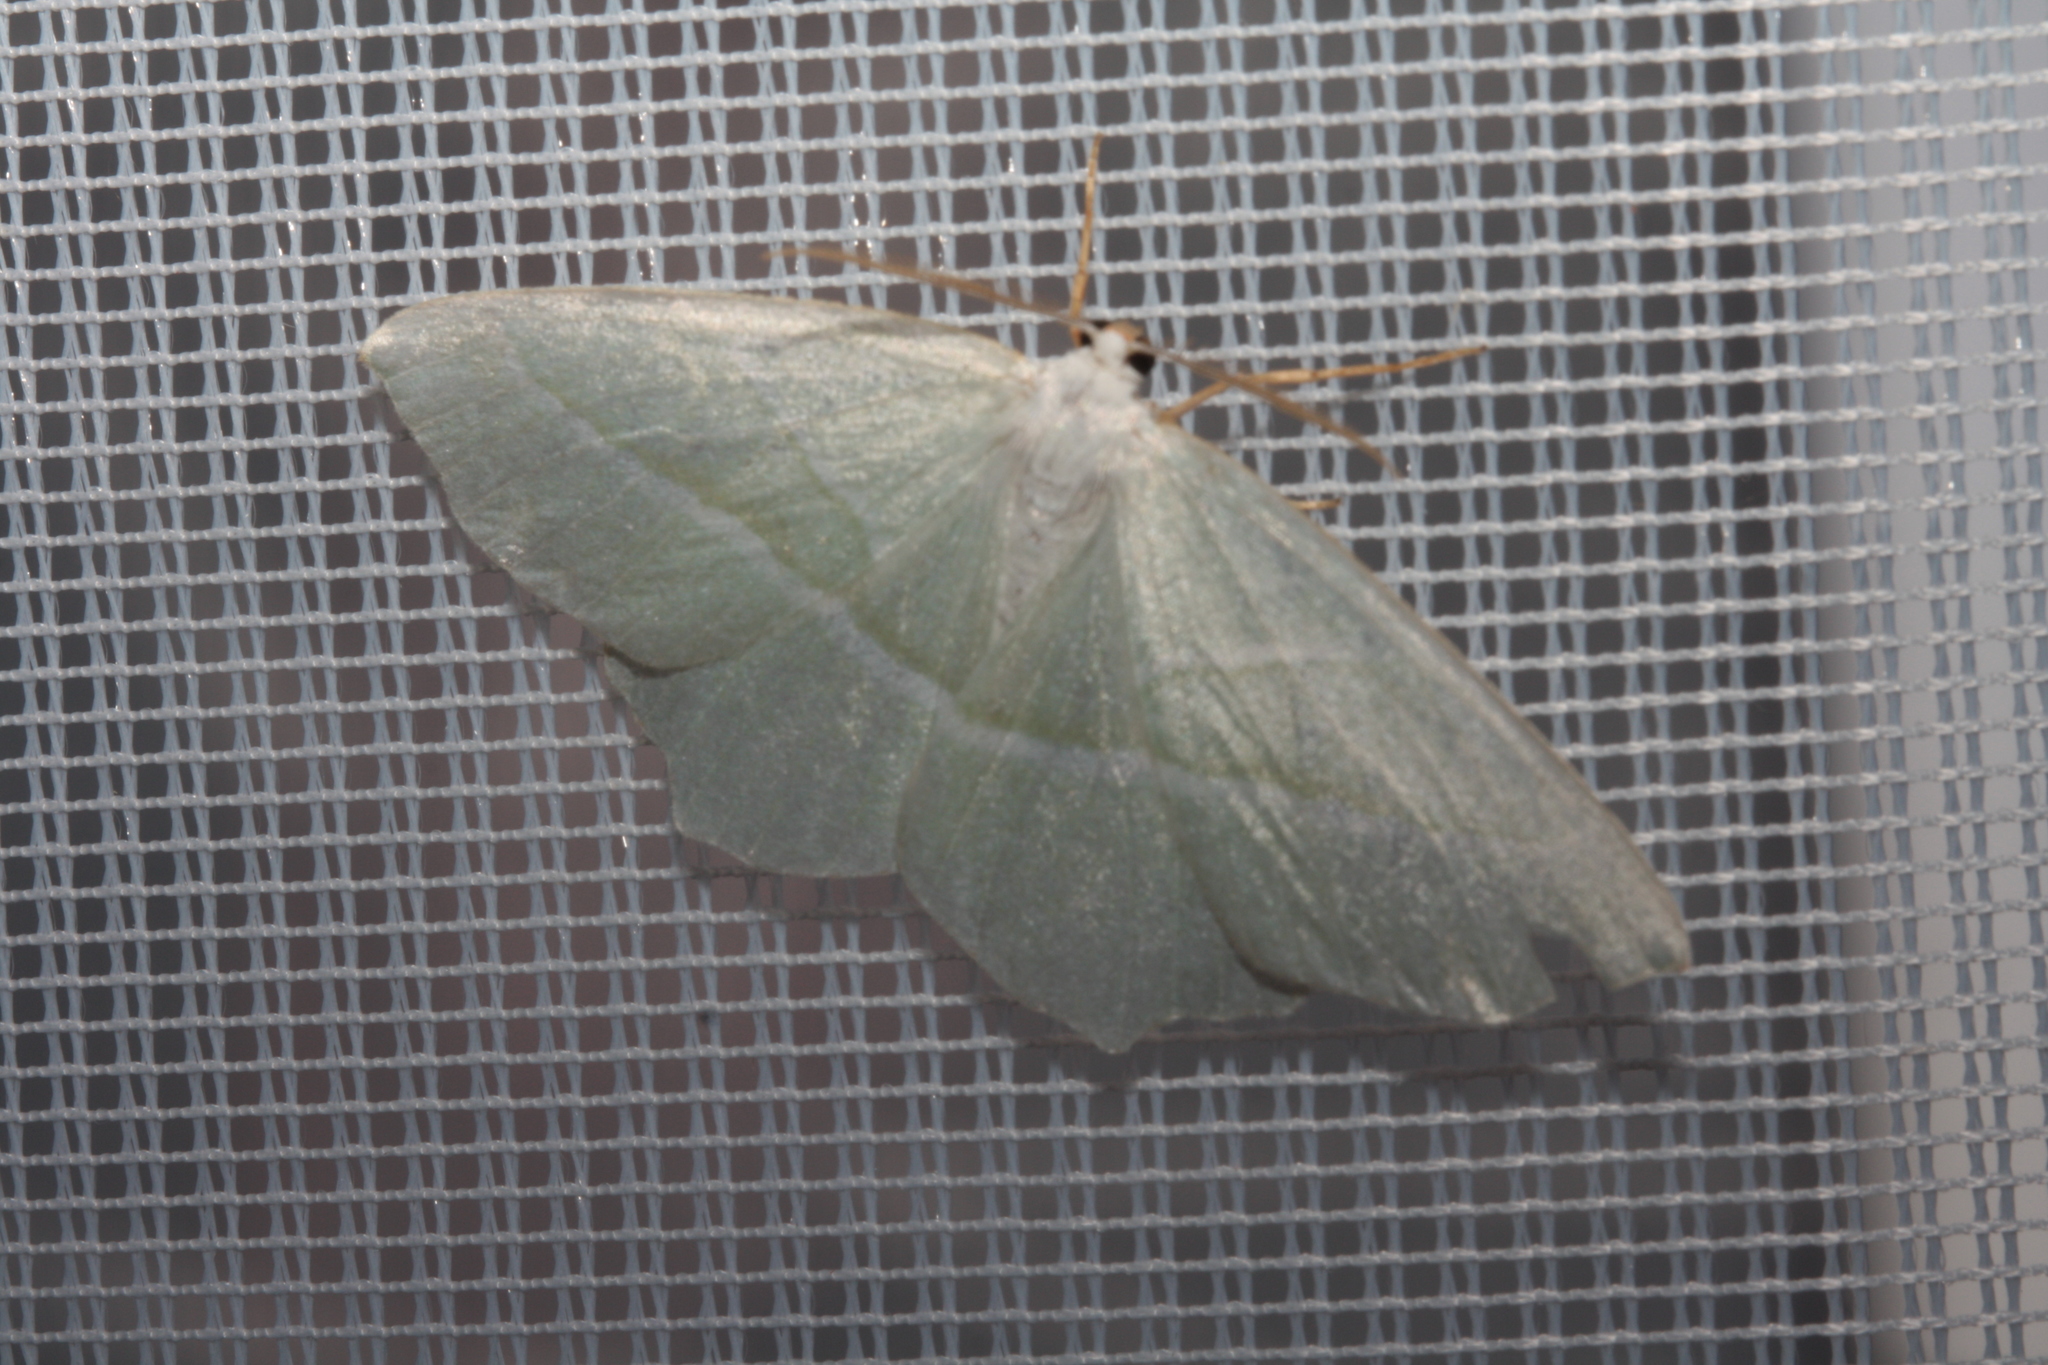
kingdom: Animalia
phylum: Arthropoda
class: Insecta
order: Lepidoptera
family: Geometridae
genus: Campaea
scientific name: Campaea margaritaria
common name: Light emerald
